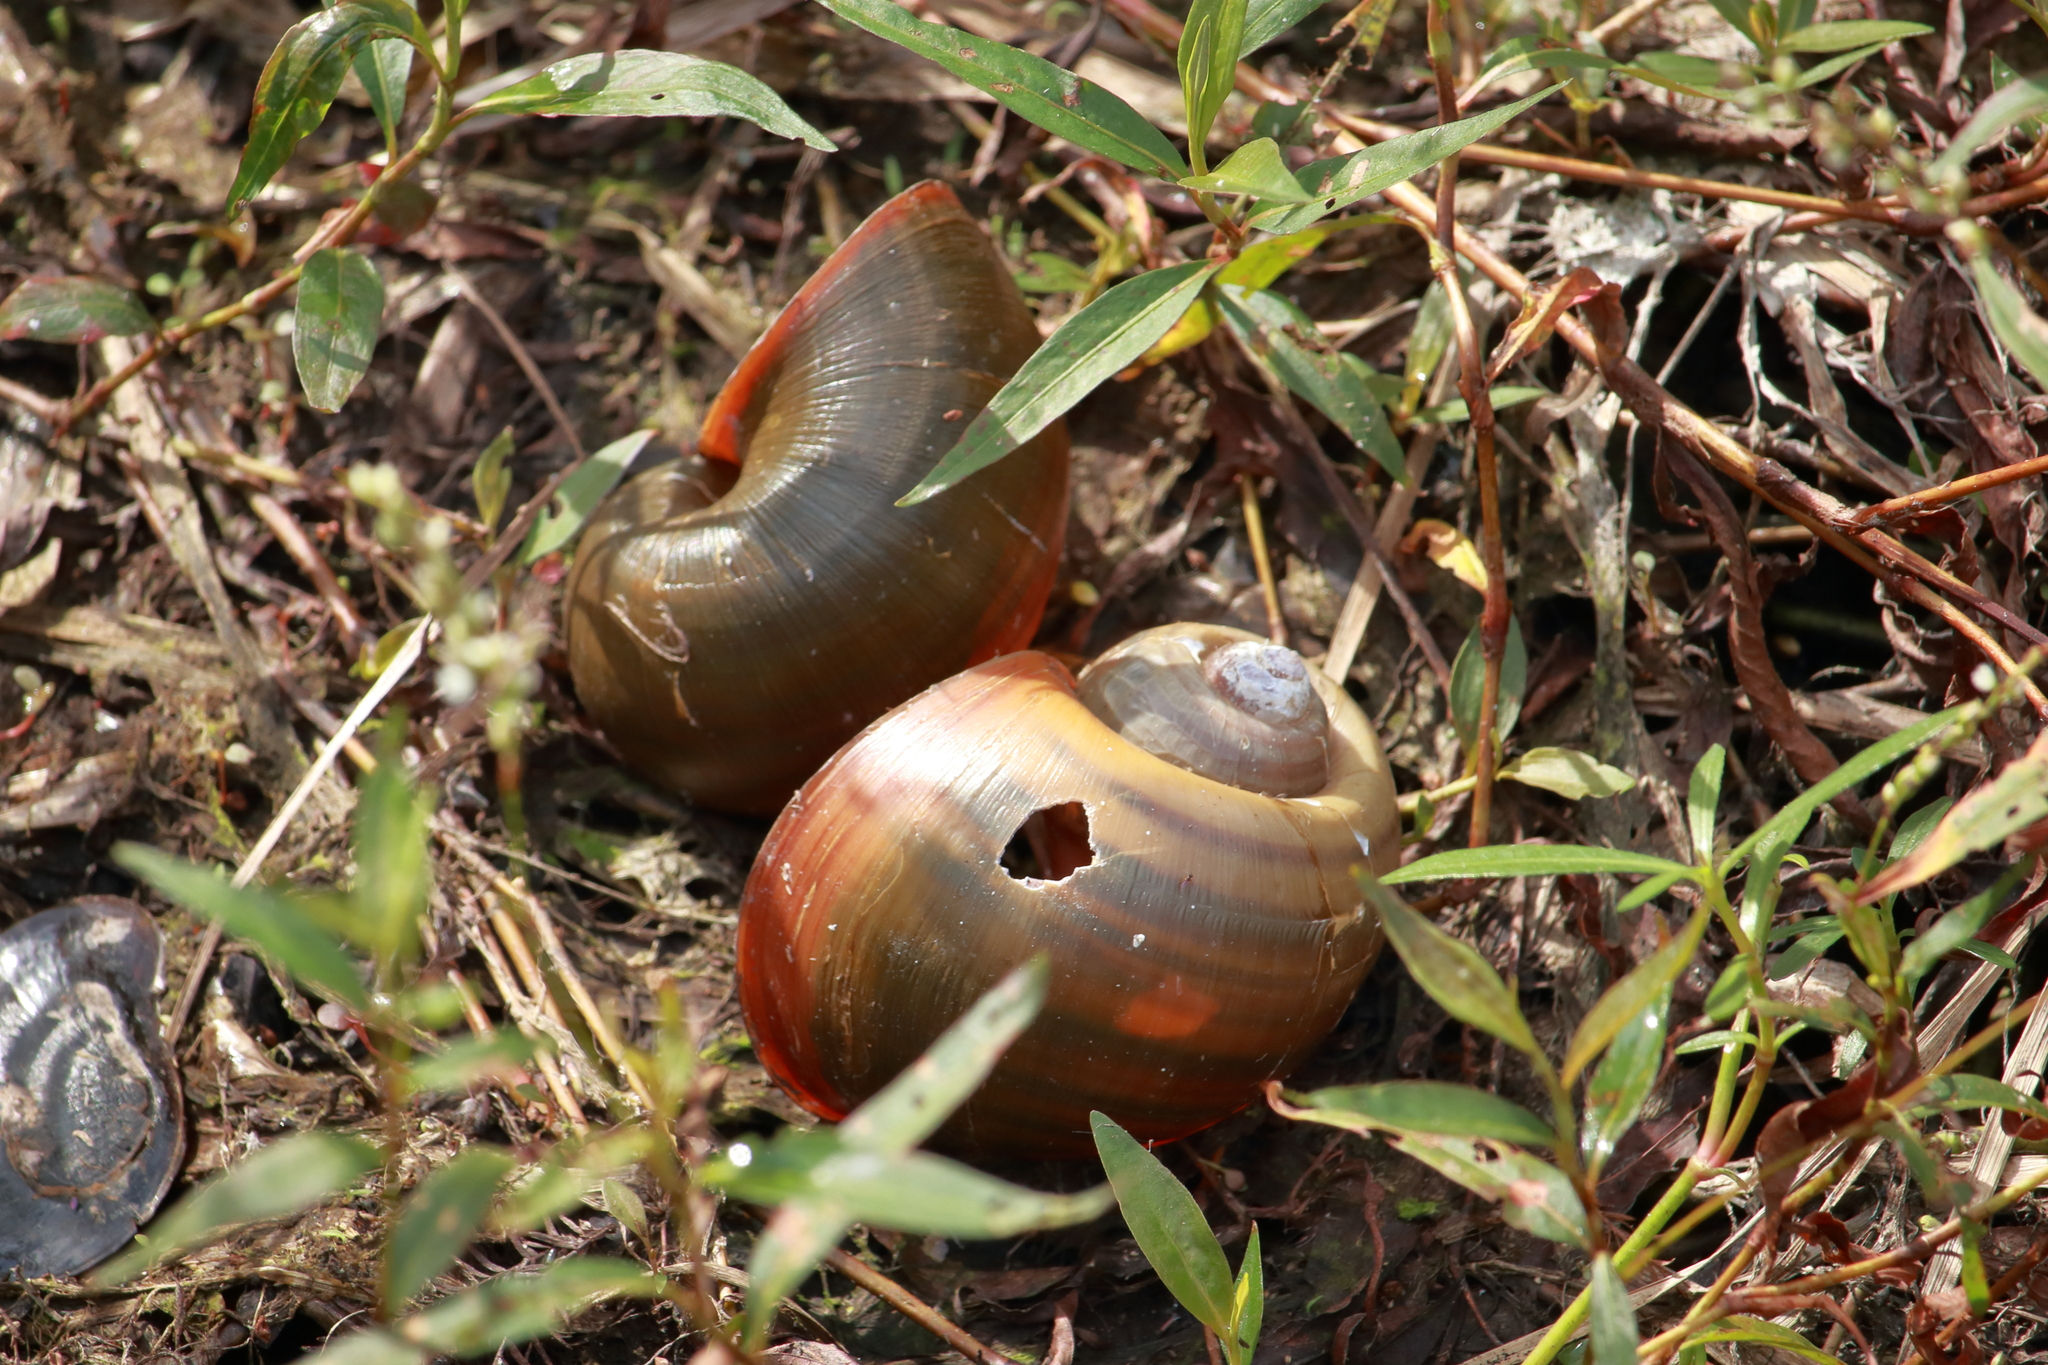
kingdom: Animalia
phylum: Mollusca
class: Gastropoda
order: Architaenioglossa
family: Ampullariidae
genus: Pomacea
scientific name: Pomacea maculata
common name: Giant applesnail
